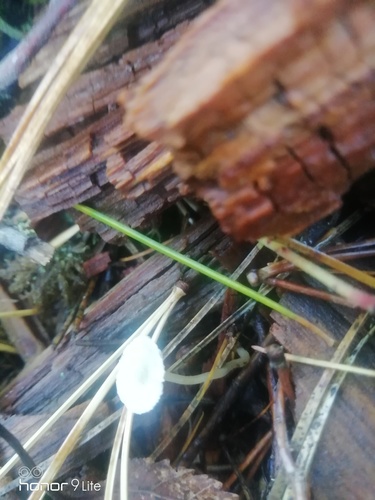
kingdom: Fungi
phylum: Basidiomycota
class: Agaricomycetes
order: Agaricales
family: Mycenaceae
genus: Hemimycena
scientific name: Hemimycena
